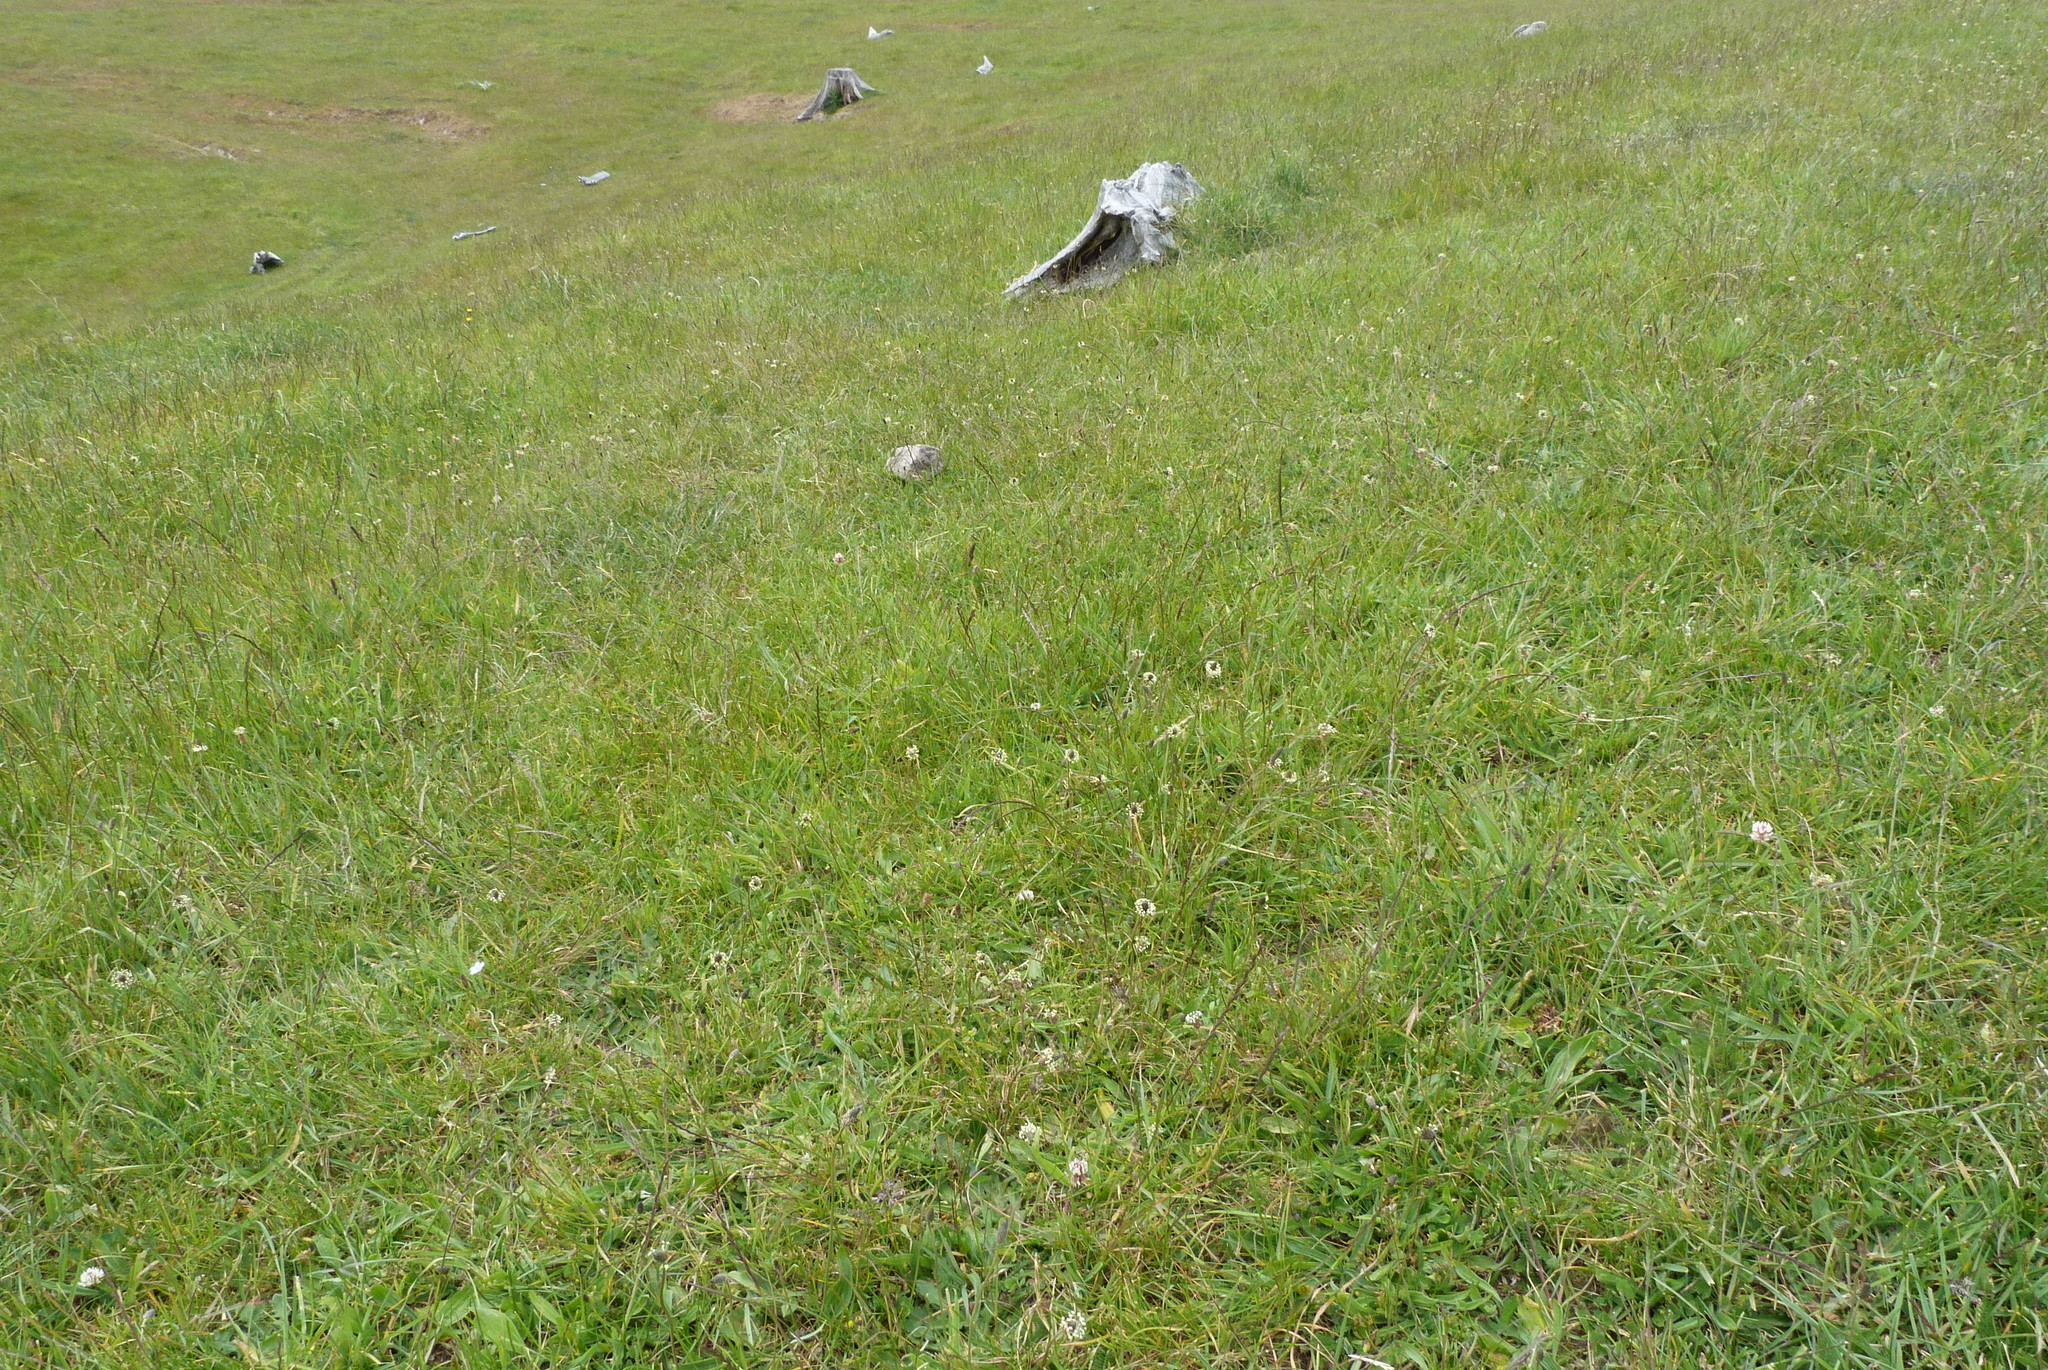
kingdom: Plantae
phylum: Tracheophyta
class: Magnoliopsida
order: Lamiales
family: Plantaginaceae
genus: Plantago
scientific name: Plantago lanceolata
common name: Ribwort plantain
